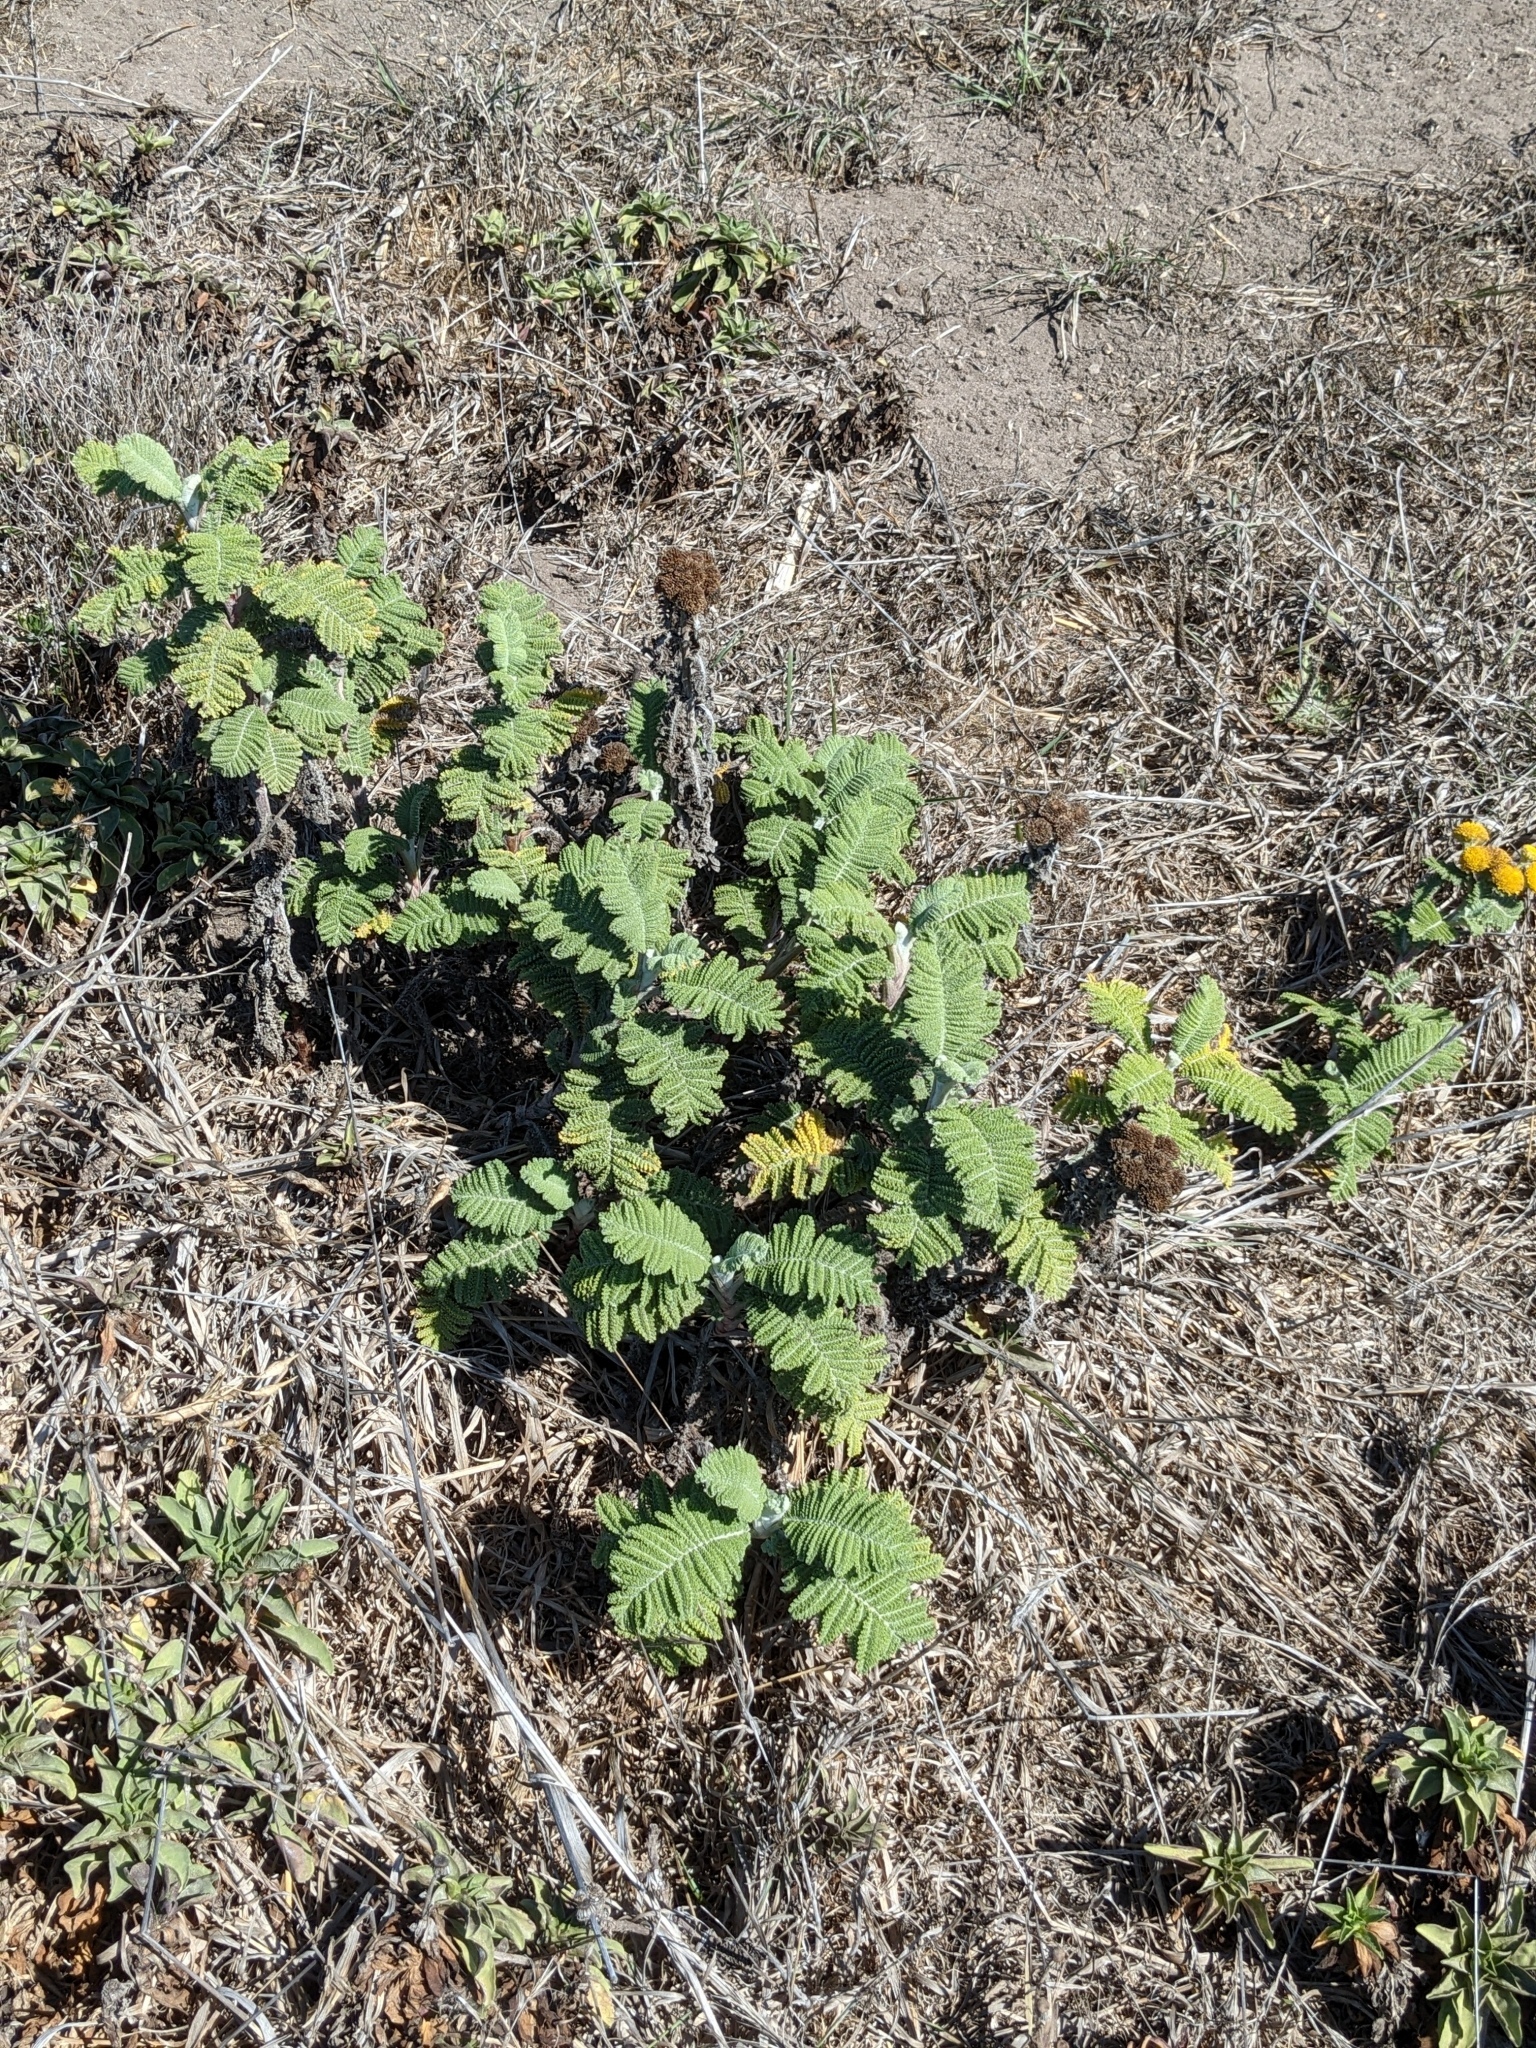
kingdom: Plantae
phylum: Tracheophyta
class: Magnoliopsida
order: Asterales
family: Asteraceae
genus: Tanacetum
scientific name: Tanacetum bipinnatum
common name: Dwarf tansy
